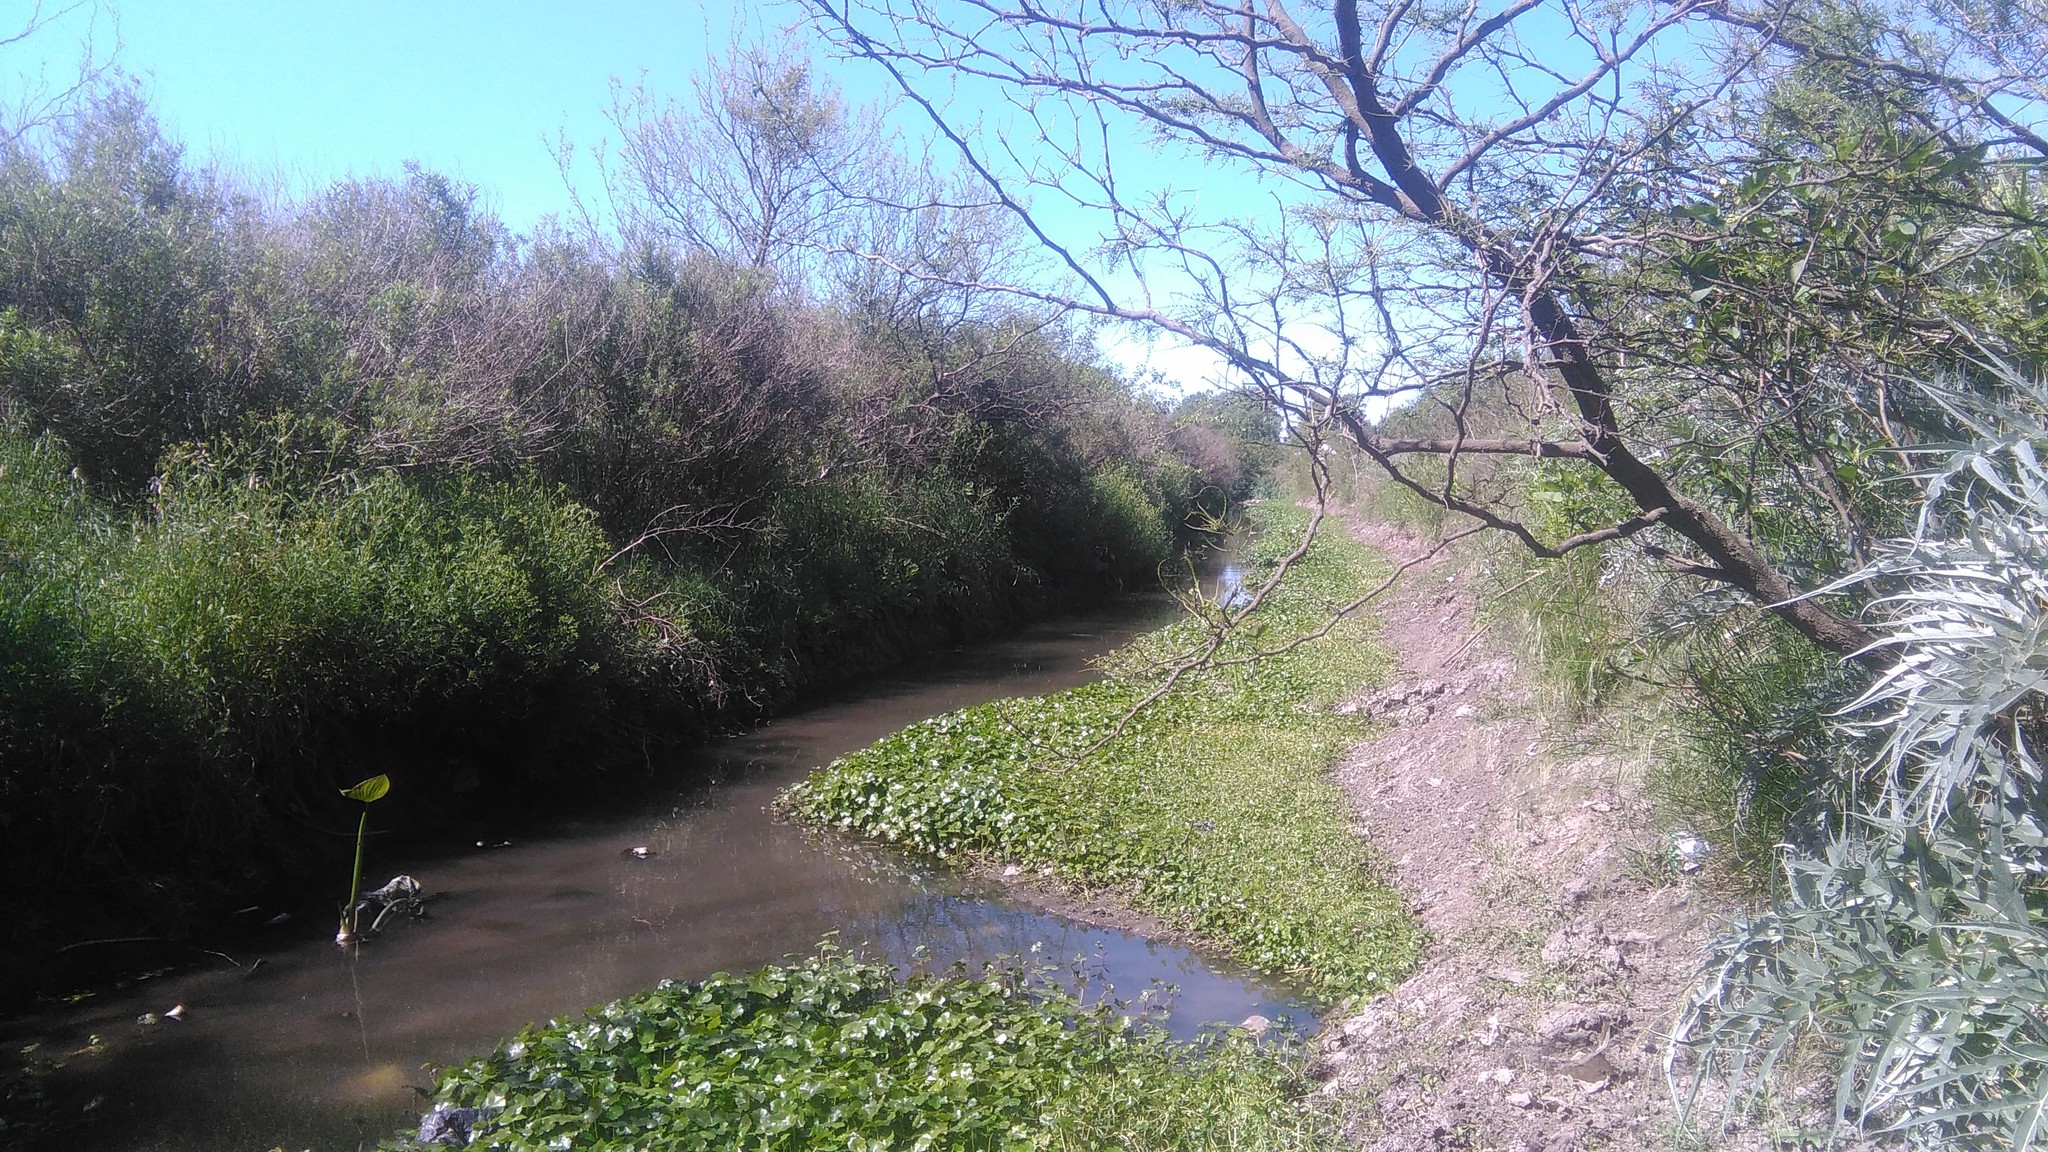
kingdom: Plantae
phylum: Tracheophyta
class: Liliopsida
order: Alismatales
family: Alismataceae
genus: Sagittaria
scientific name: Sagittaria montevidensis
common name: Giant arrowhead
